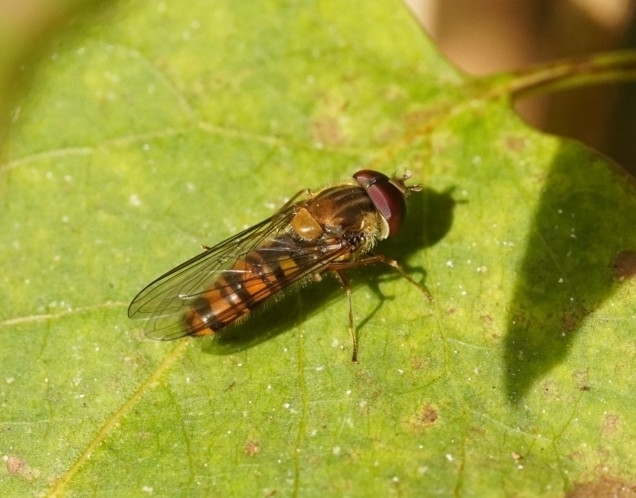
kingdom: Animalia
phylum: Arthropoda
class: Insecta
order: Diptera
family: Syrphidae
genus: Episyrphus
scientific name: Episyrphus balteatus
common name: Marmalade hoverfly
